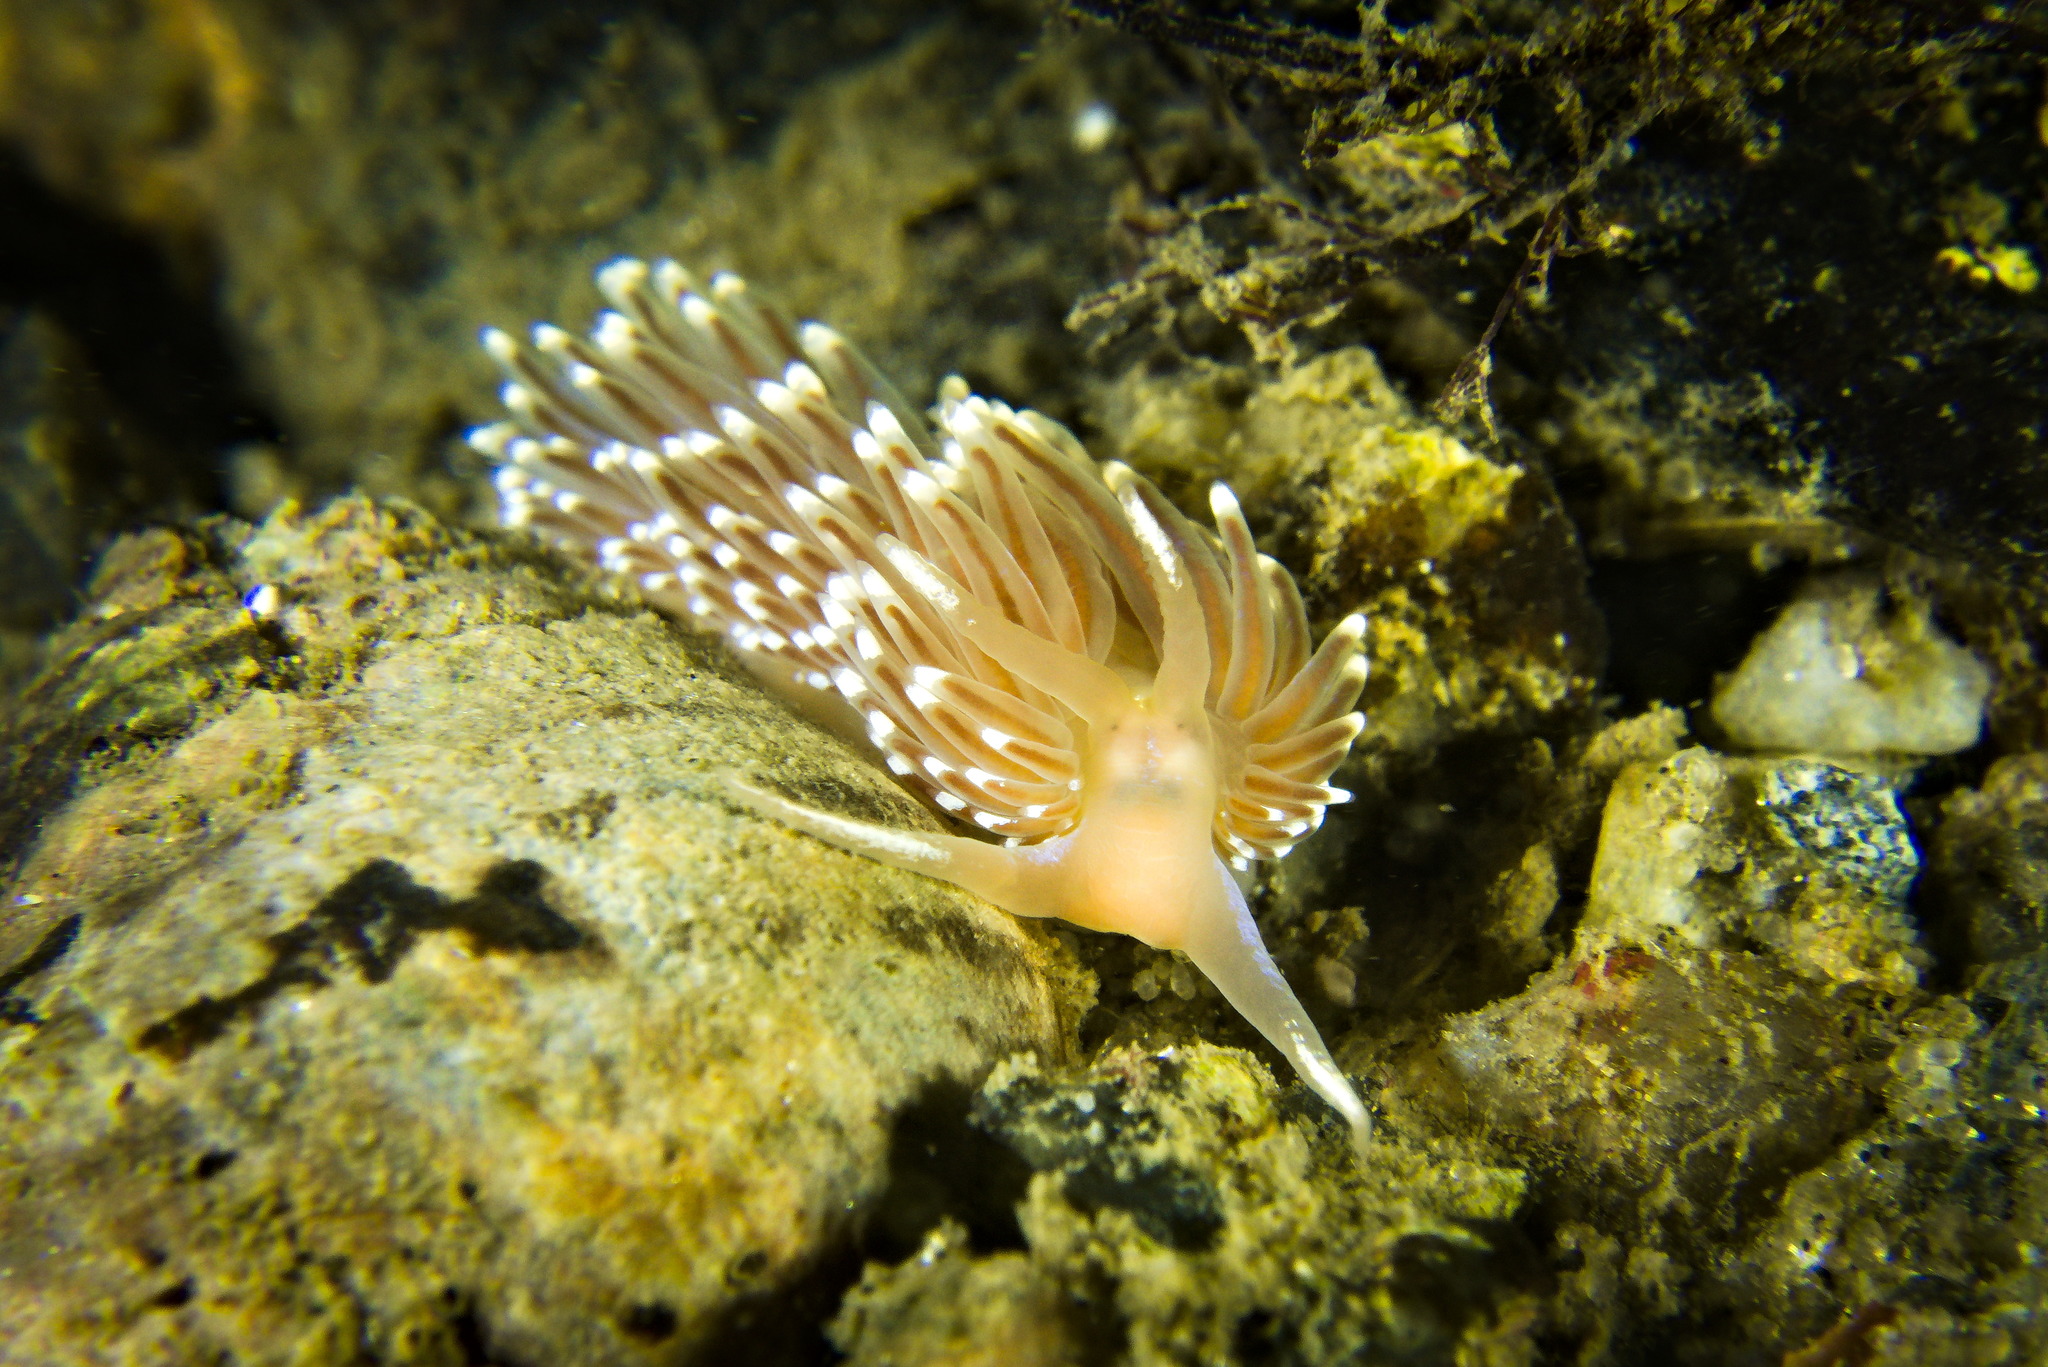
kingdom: Animalia
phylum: Mollusca
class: Gastropoda
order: Nudibranchia
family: Facelinidae
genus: Facelina
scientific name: Facelina bostoniensis
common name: Boston facelina
